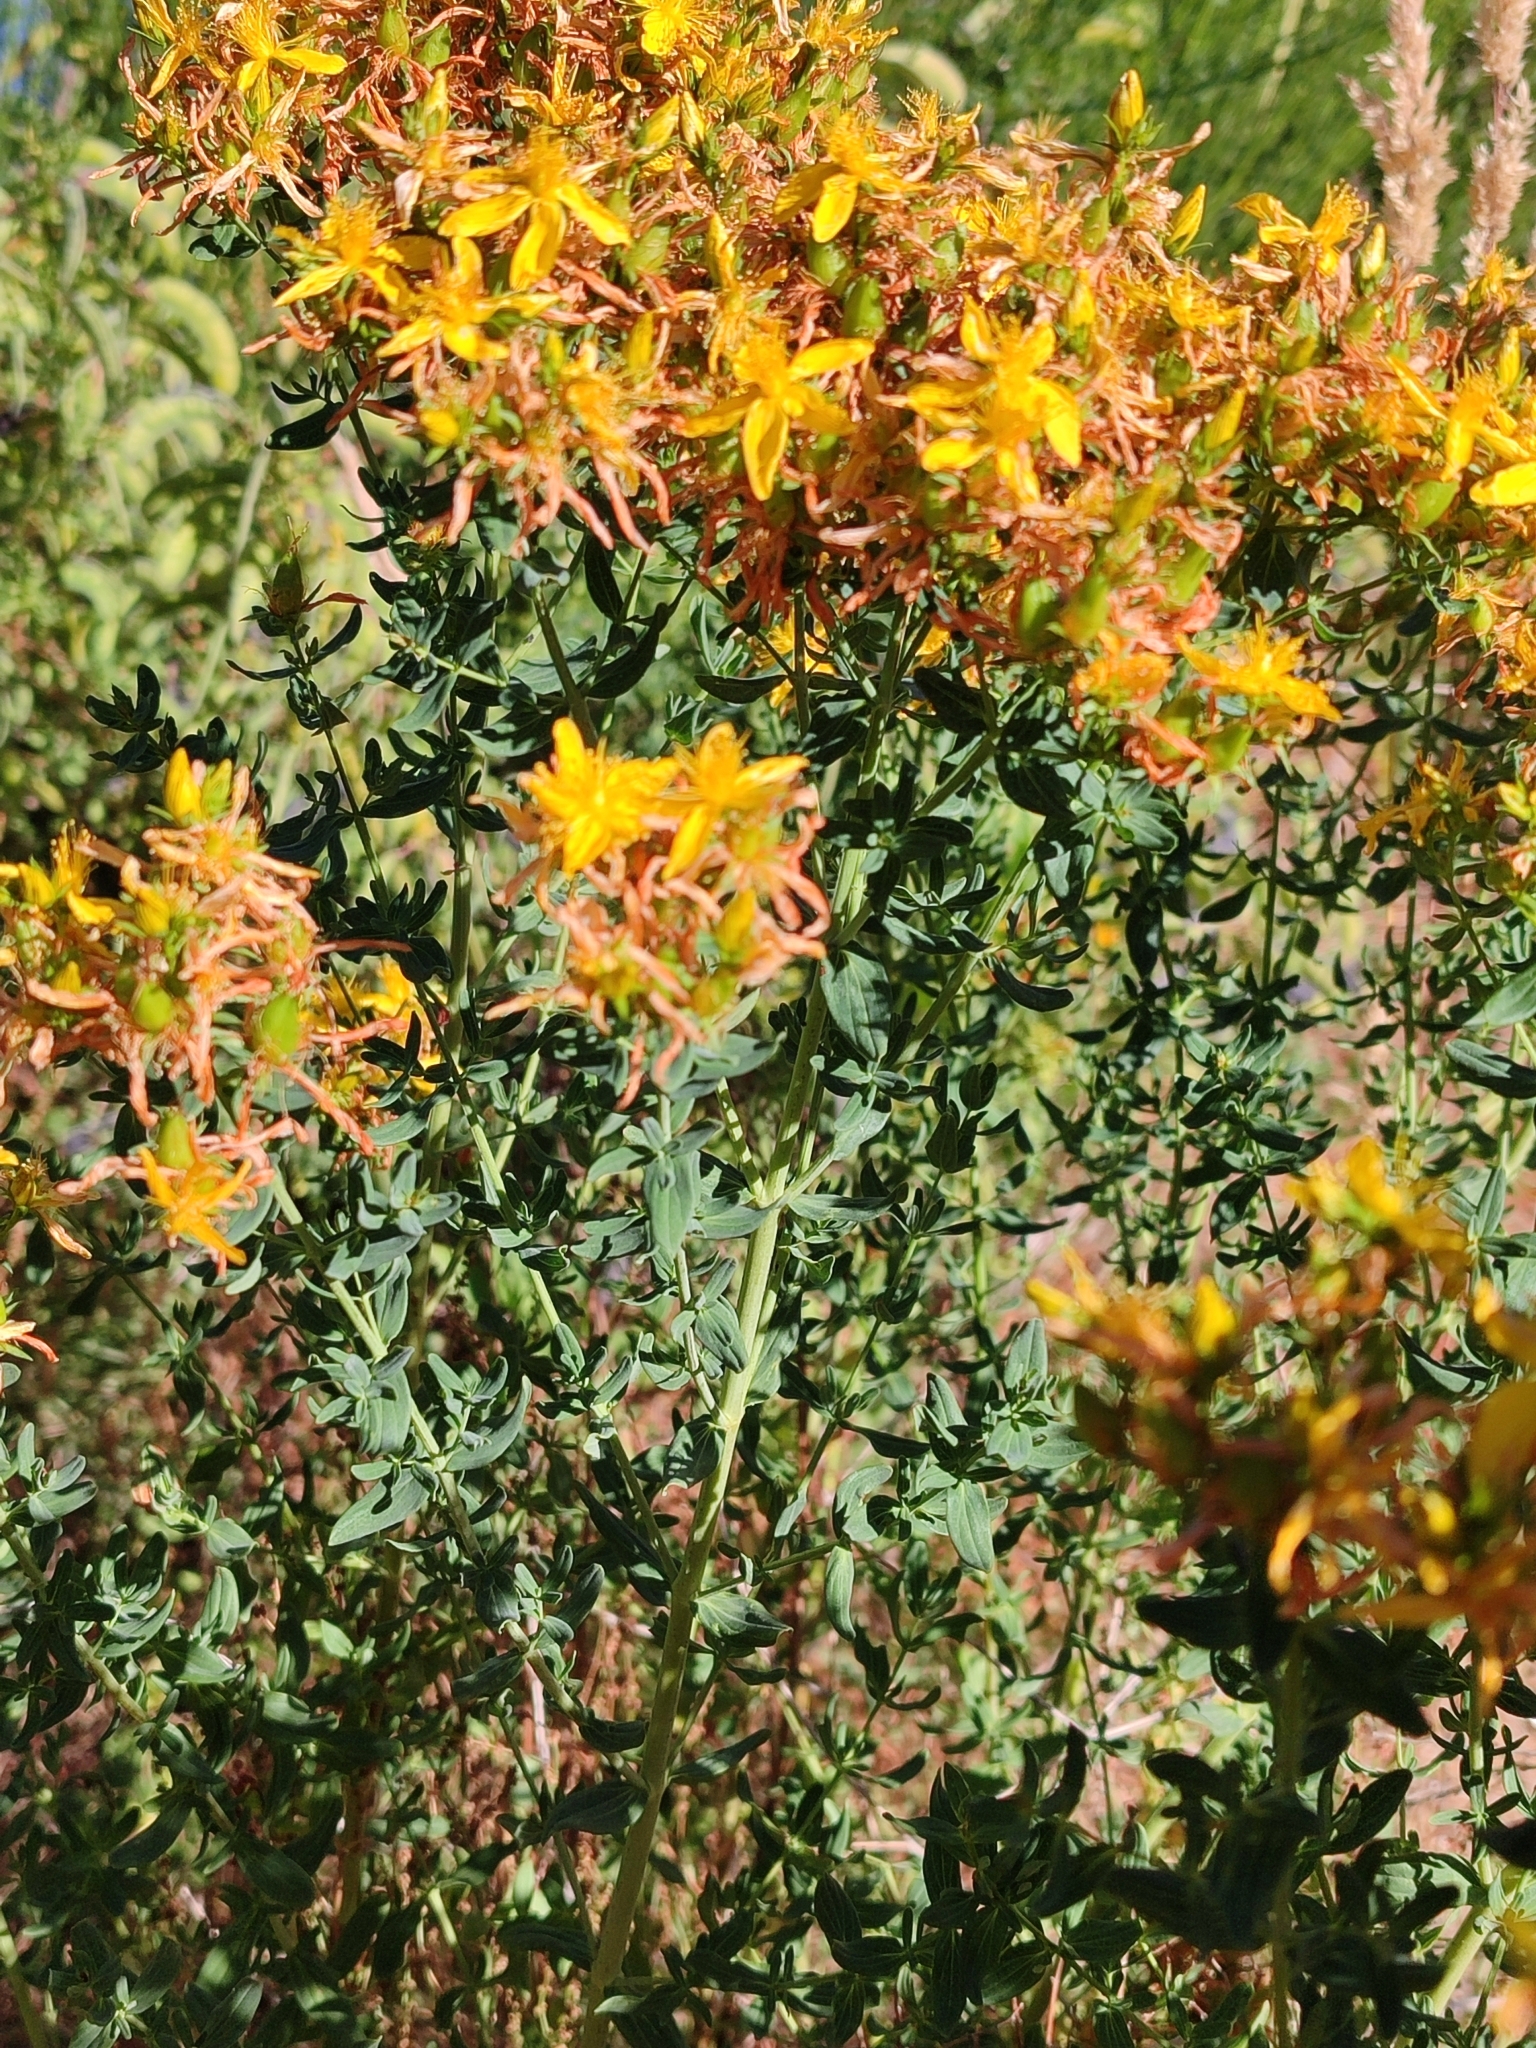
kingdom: Plantae
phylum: Tracheophyta
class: Magnoliopsida
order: Malpighiales
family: Hypericaceae
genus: Hypericum
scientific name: Hypericum perforatum
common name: Common st. johnswort
